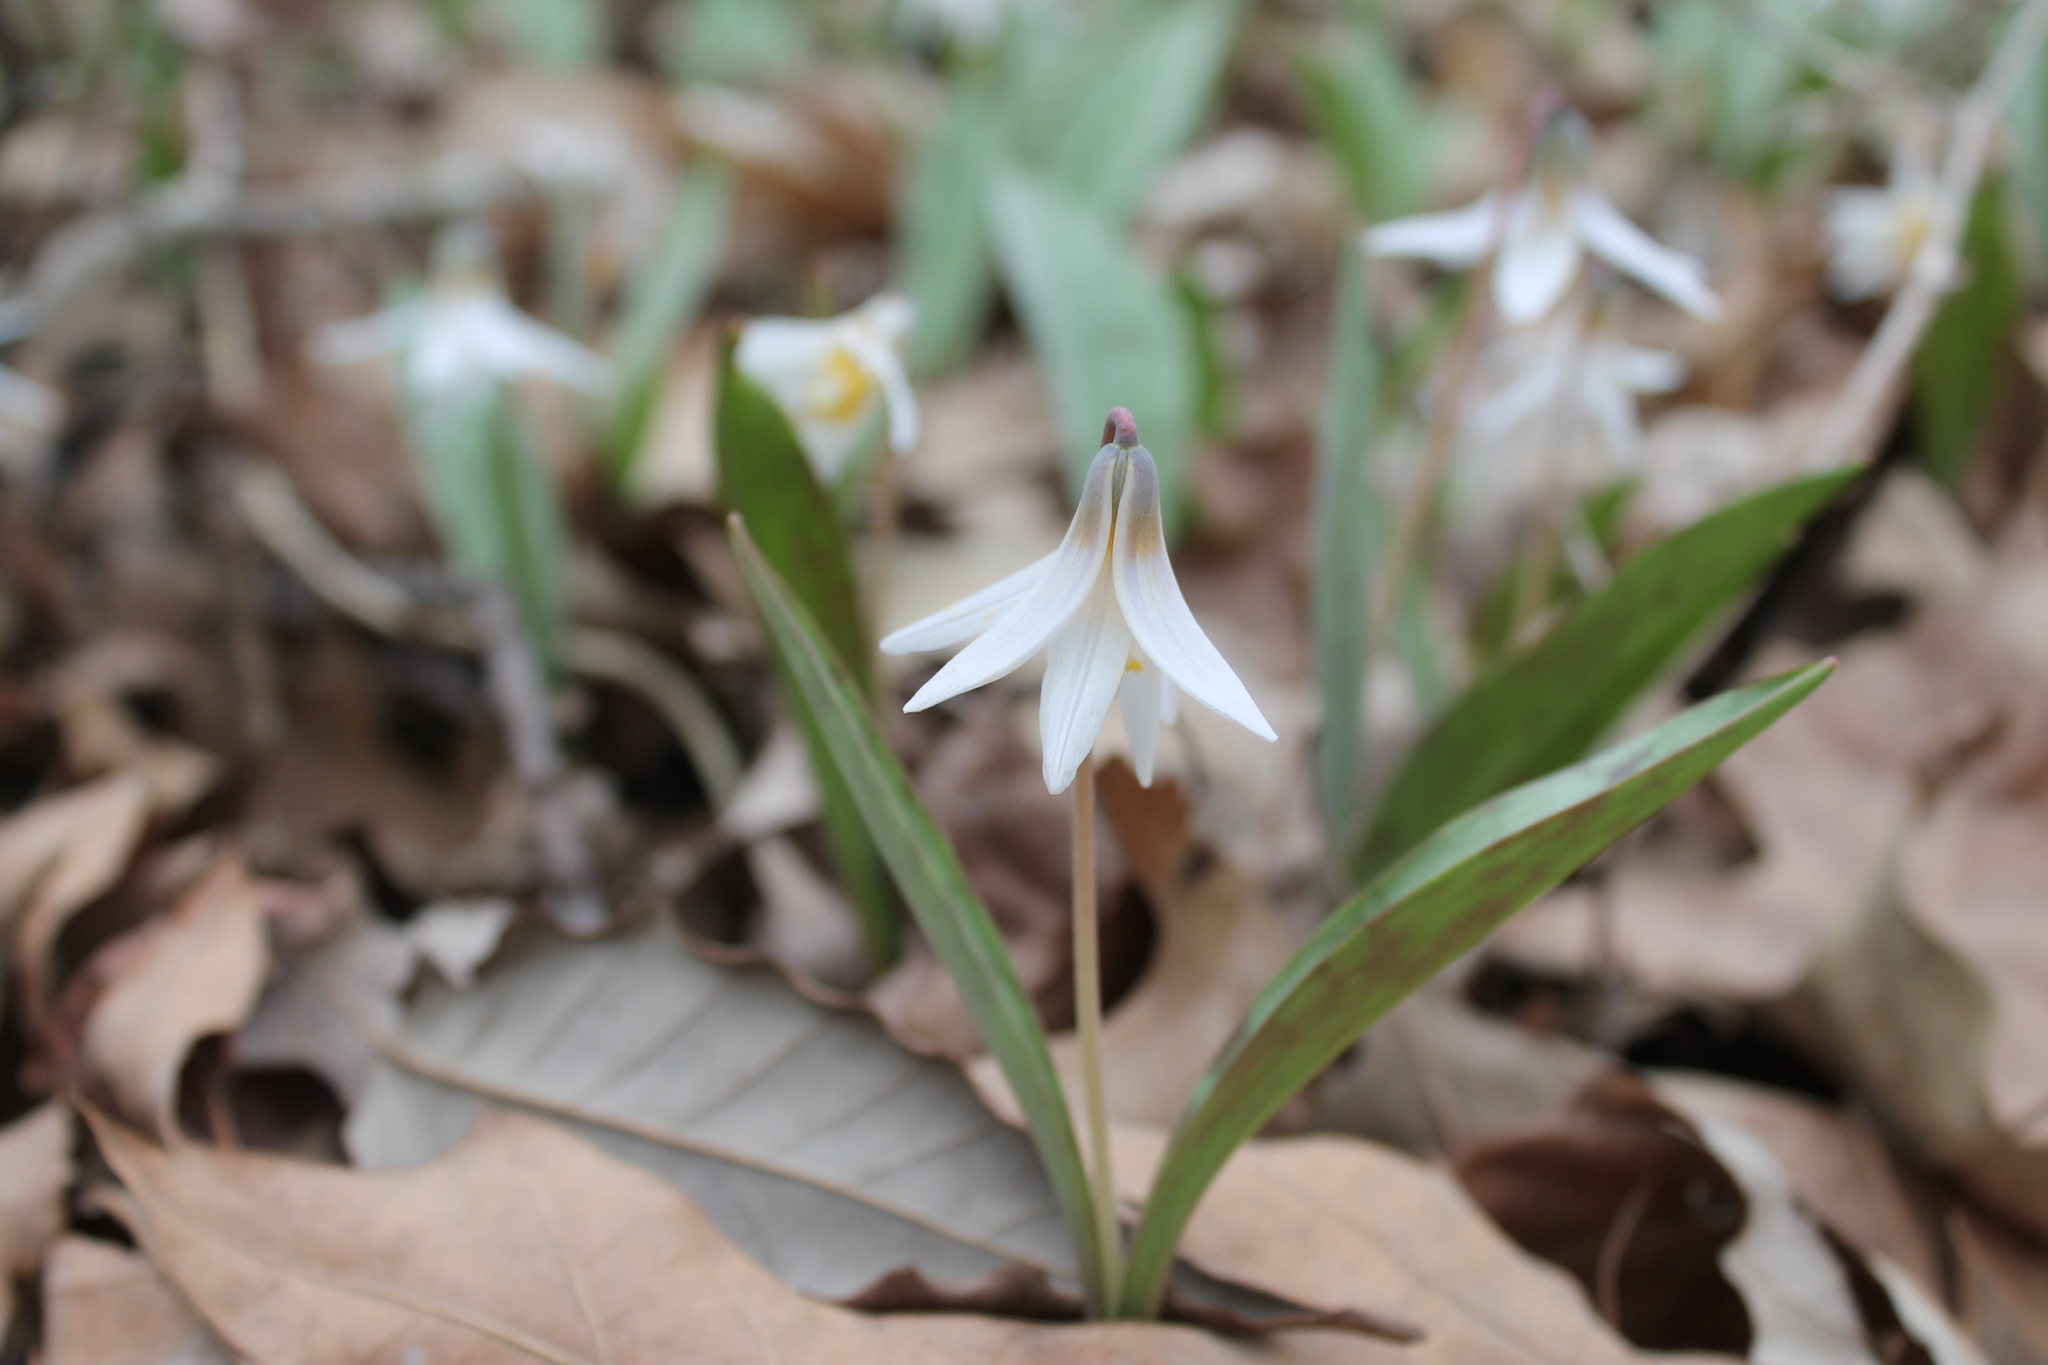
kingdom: Plantae
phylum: Tracheophyta
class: Liliopsida
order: Liliales
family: Liliaceae
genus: Erythronium
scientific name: Erythronium albidum
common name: White trout-lily
